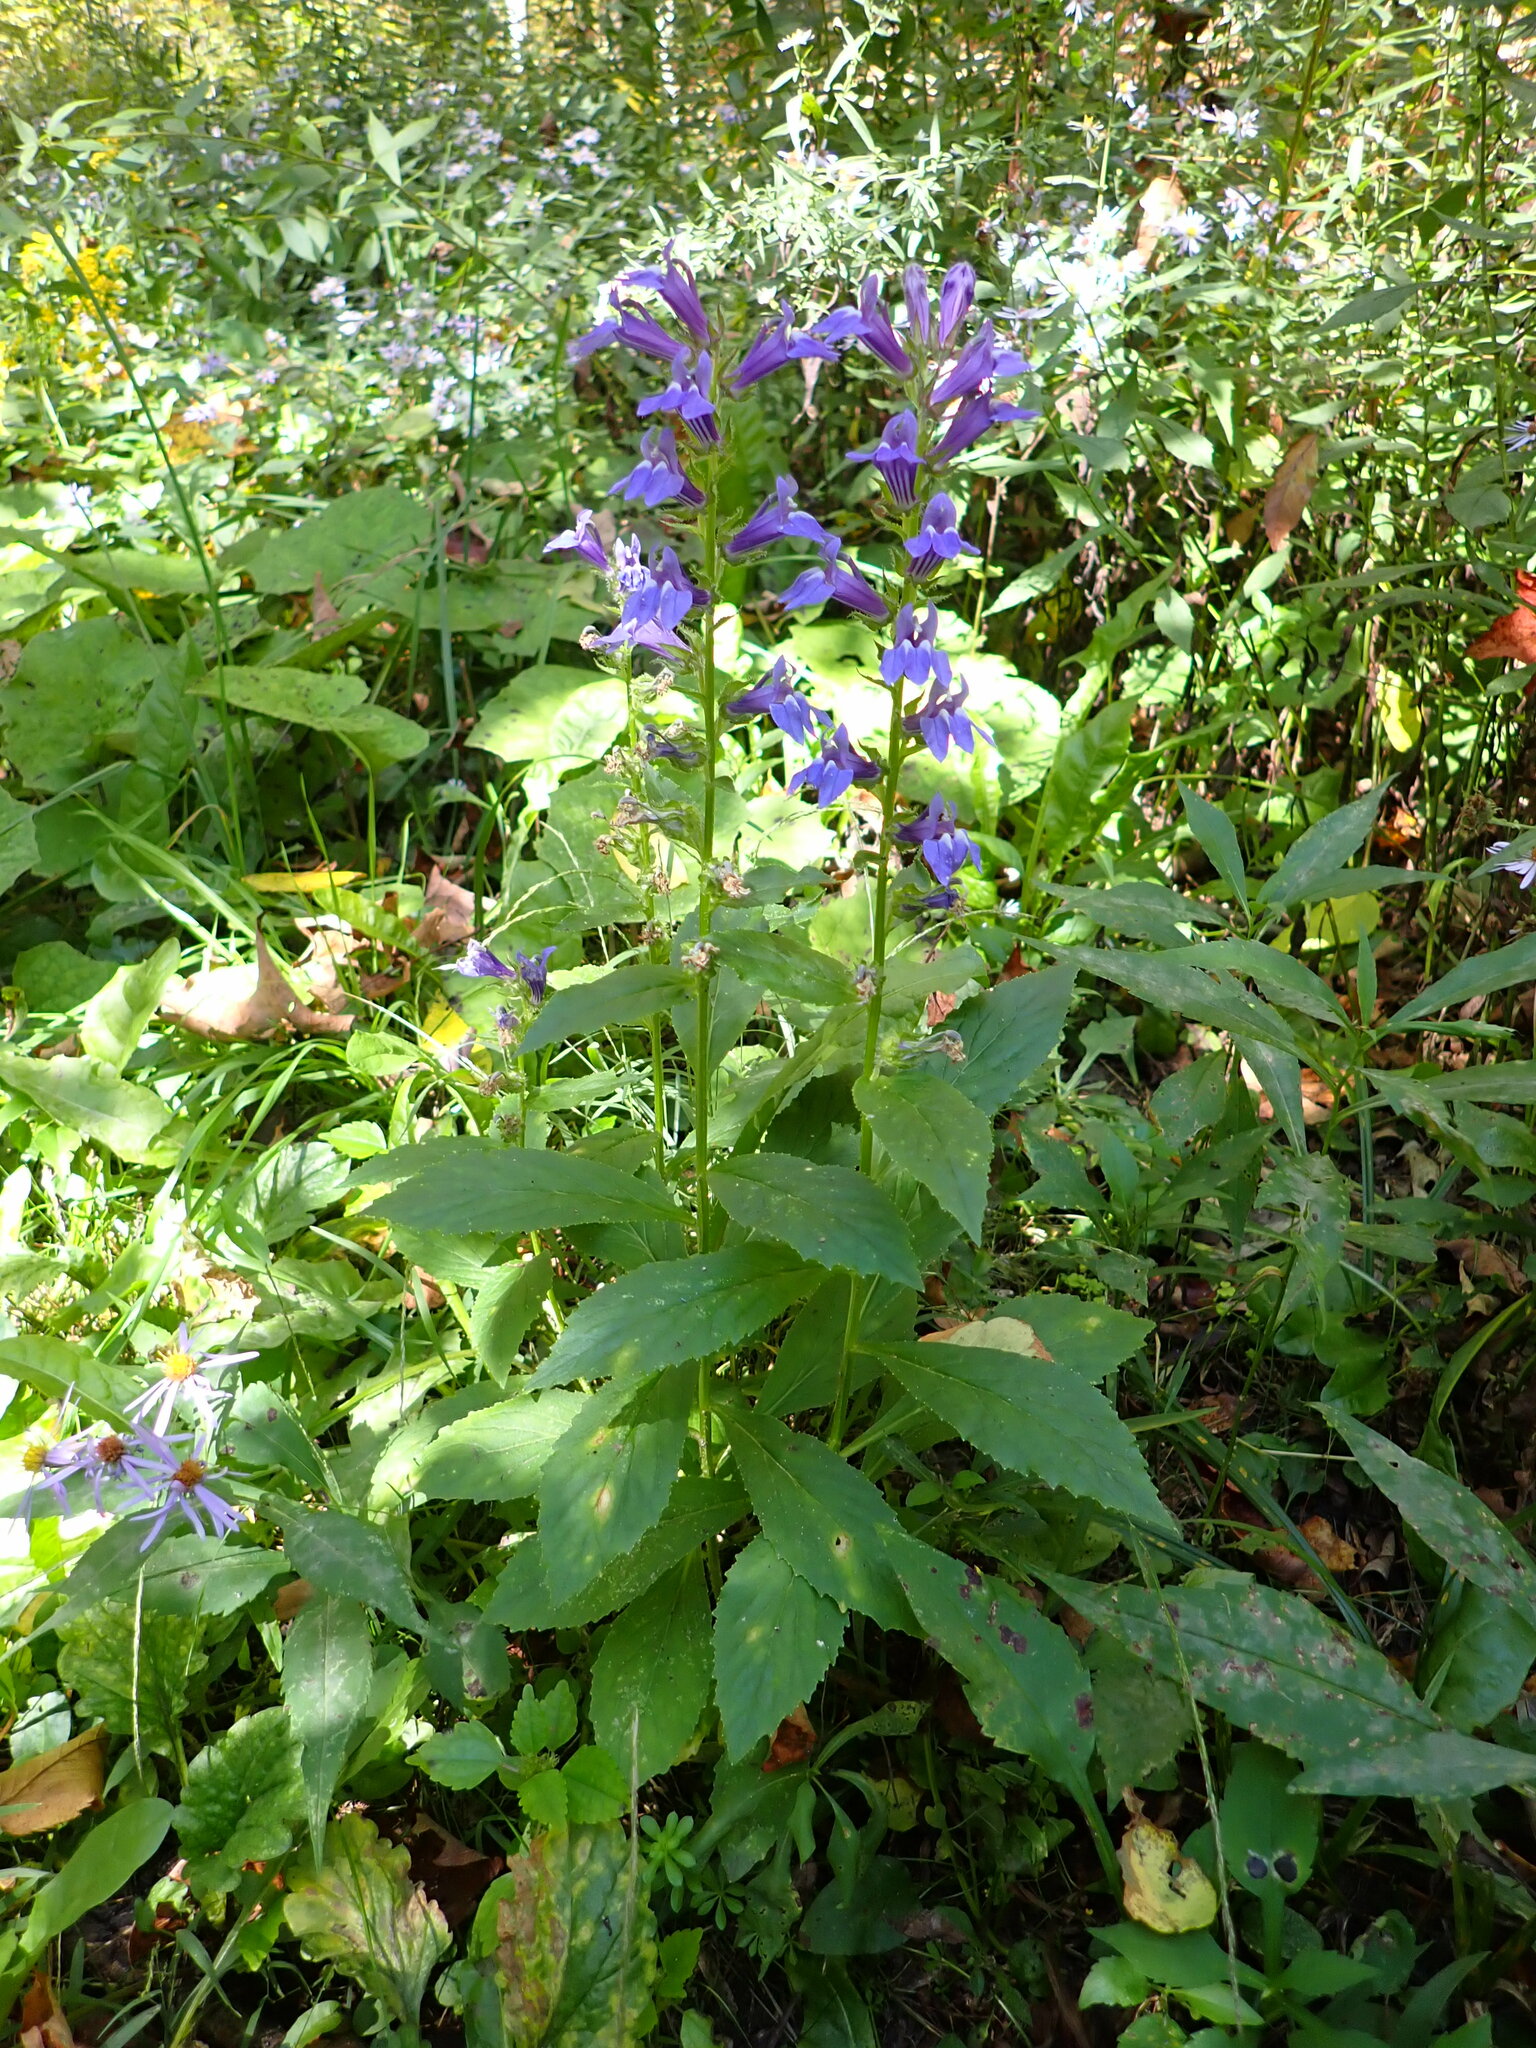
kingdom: Plantae
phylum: Tracheophyta
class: Magnoliopsida
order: Asterales
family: Campanulaceae
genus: Lobelia
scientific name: Lobelia siphilitica
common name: Great lobelia
